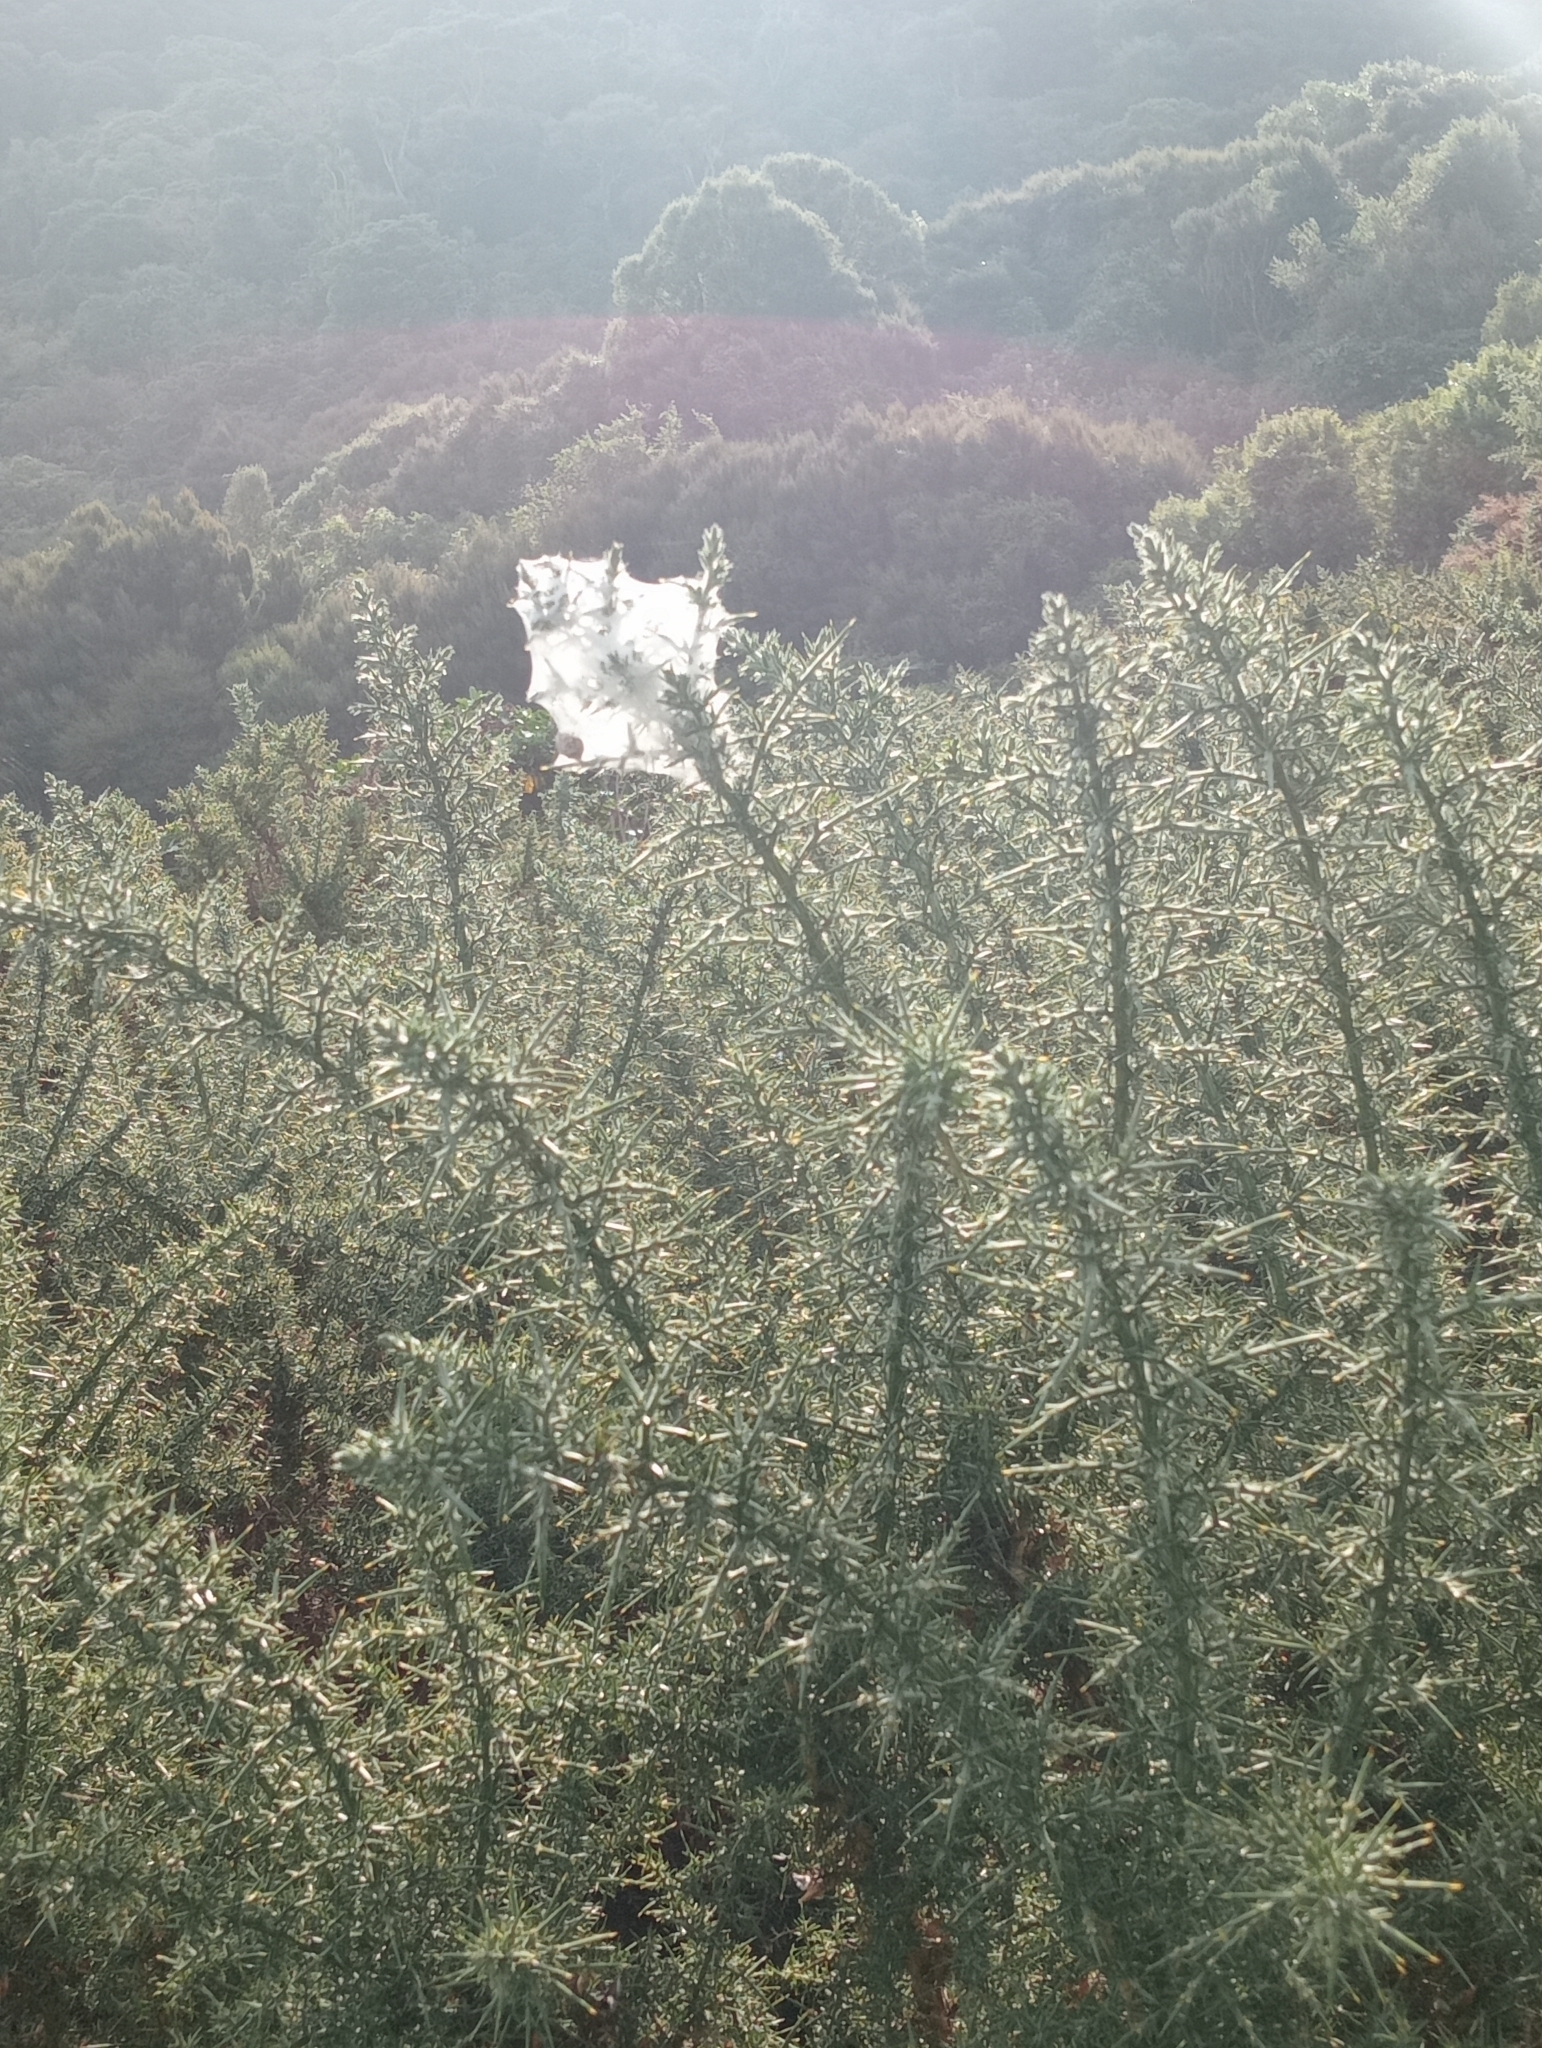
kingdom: Animalia
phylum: Arthropoda
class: Arachnida
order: Araneae
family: Pisauridae
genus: Dolomedes
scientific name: Dolomedes minor
